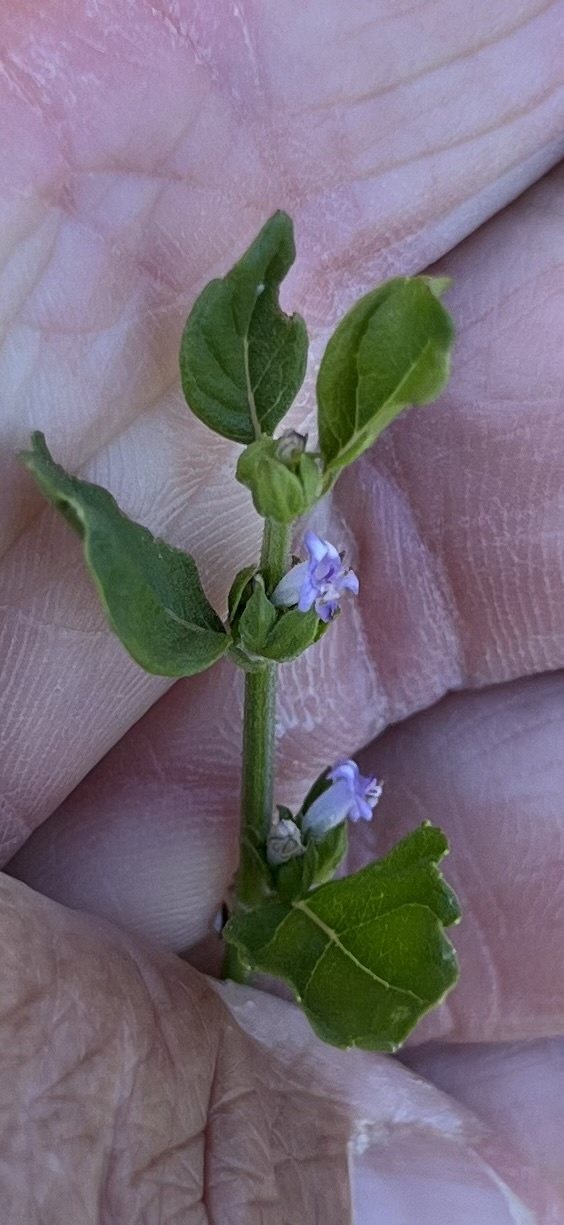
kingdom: Plantae
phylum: Tracheophyta
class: Magnoliopsida
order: Lamiales
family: Lamiaceae
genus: Cantinoa
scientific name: Cantinoa mutabilis
